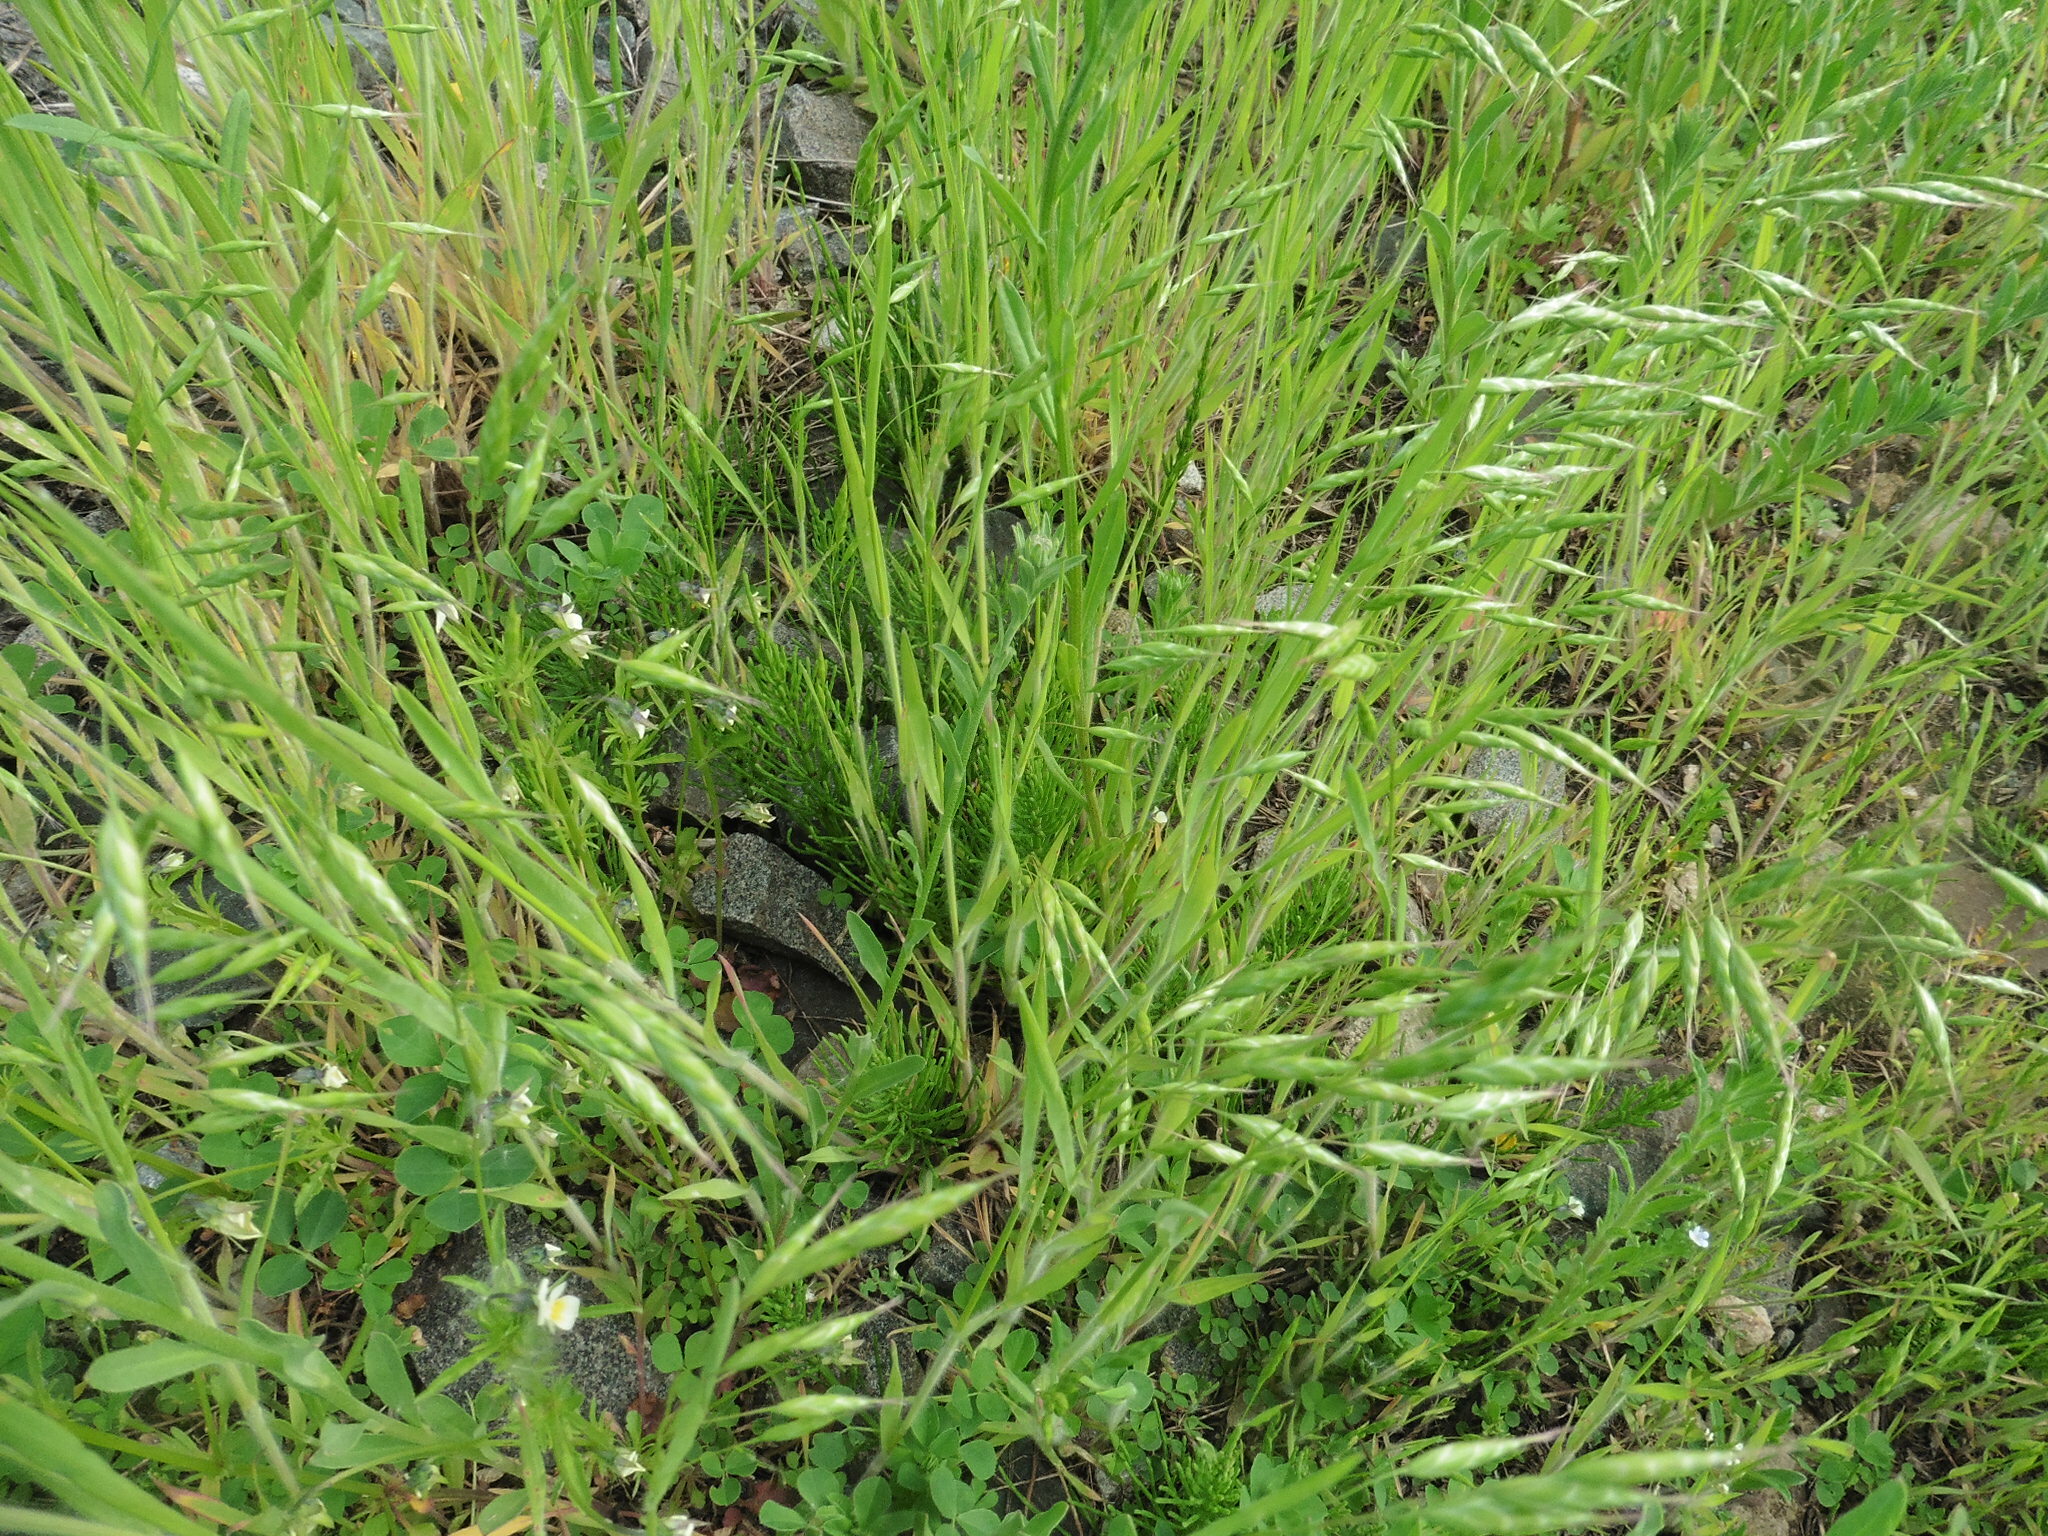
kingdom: Plantae
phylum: Tracheophyta
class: Liliopsida
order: Poales
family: Poaceae
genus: Bromus
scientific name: Bromus japonicus
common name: Japanese brome
